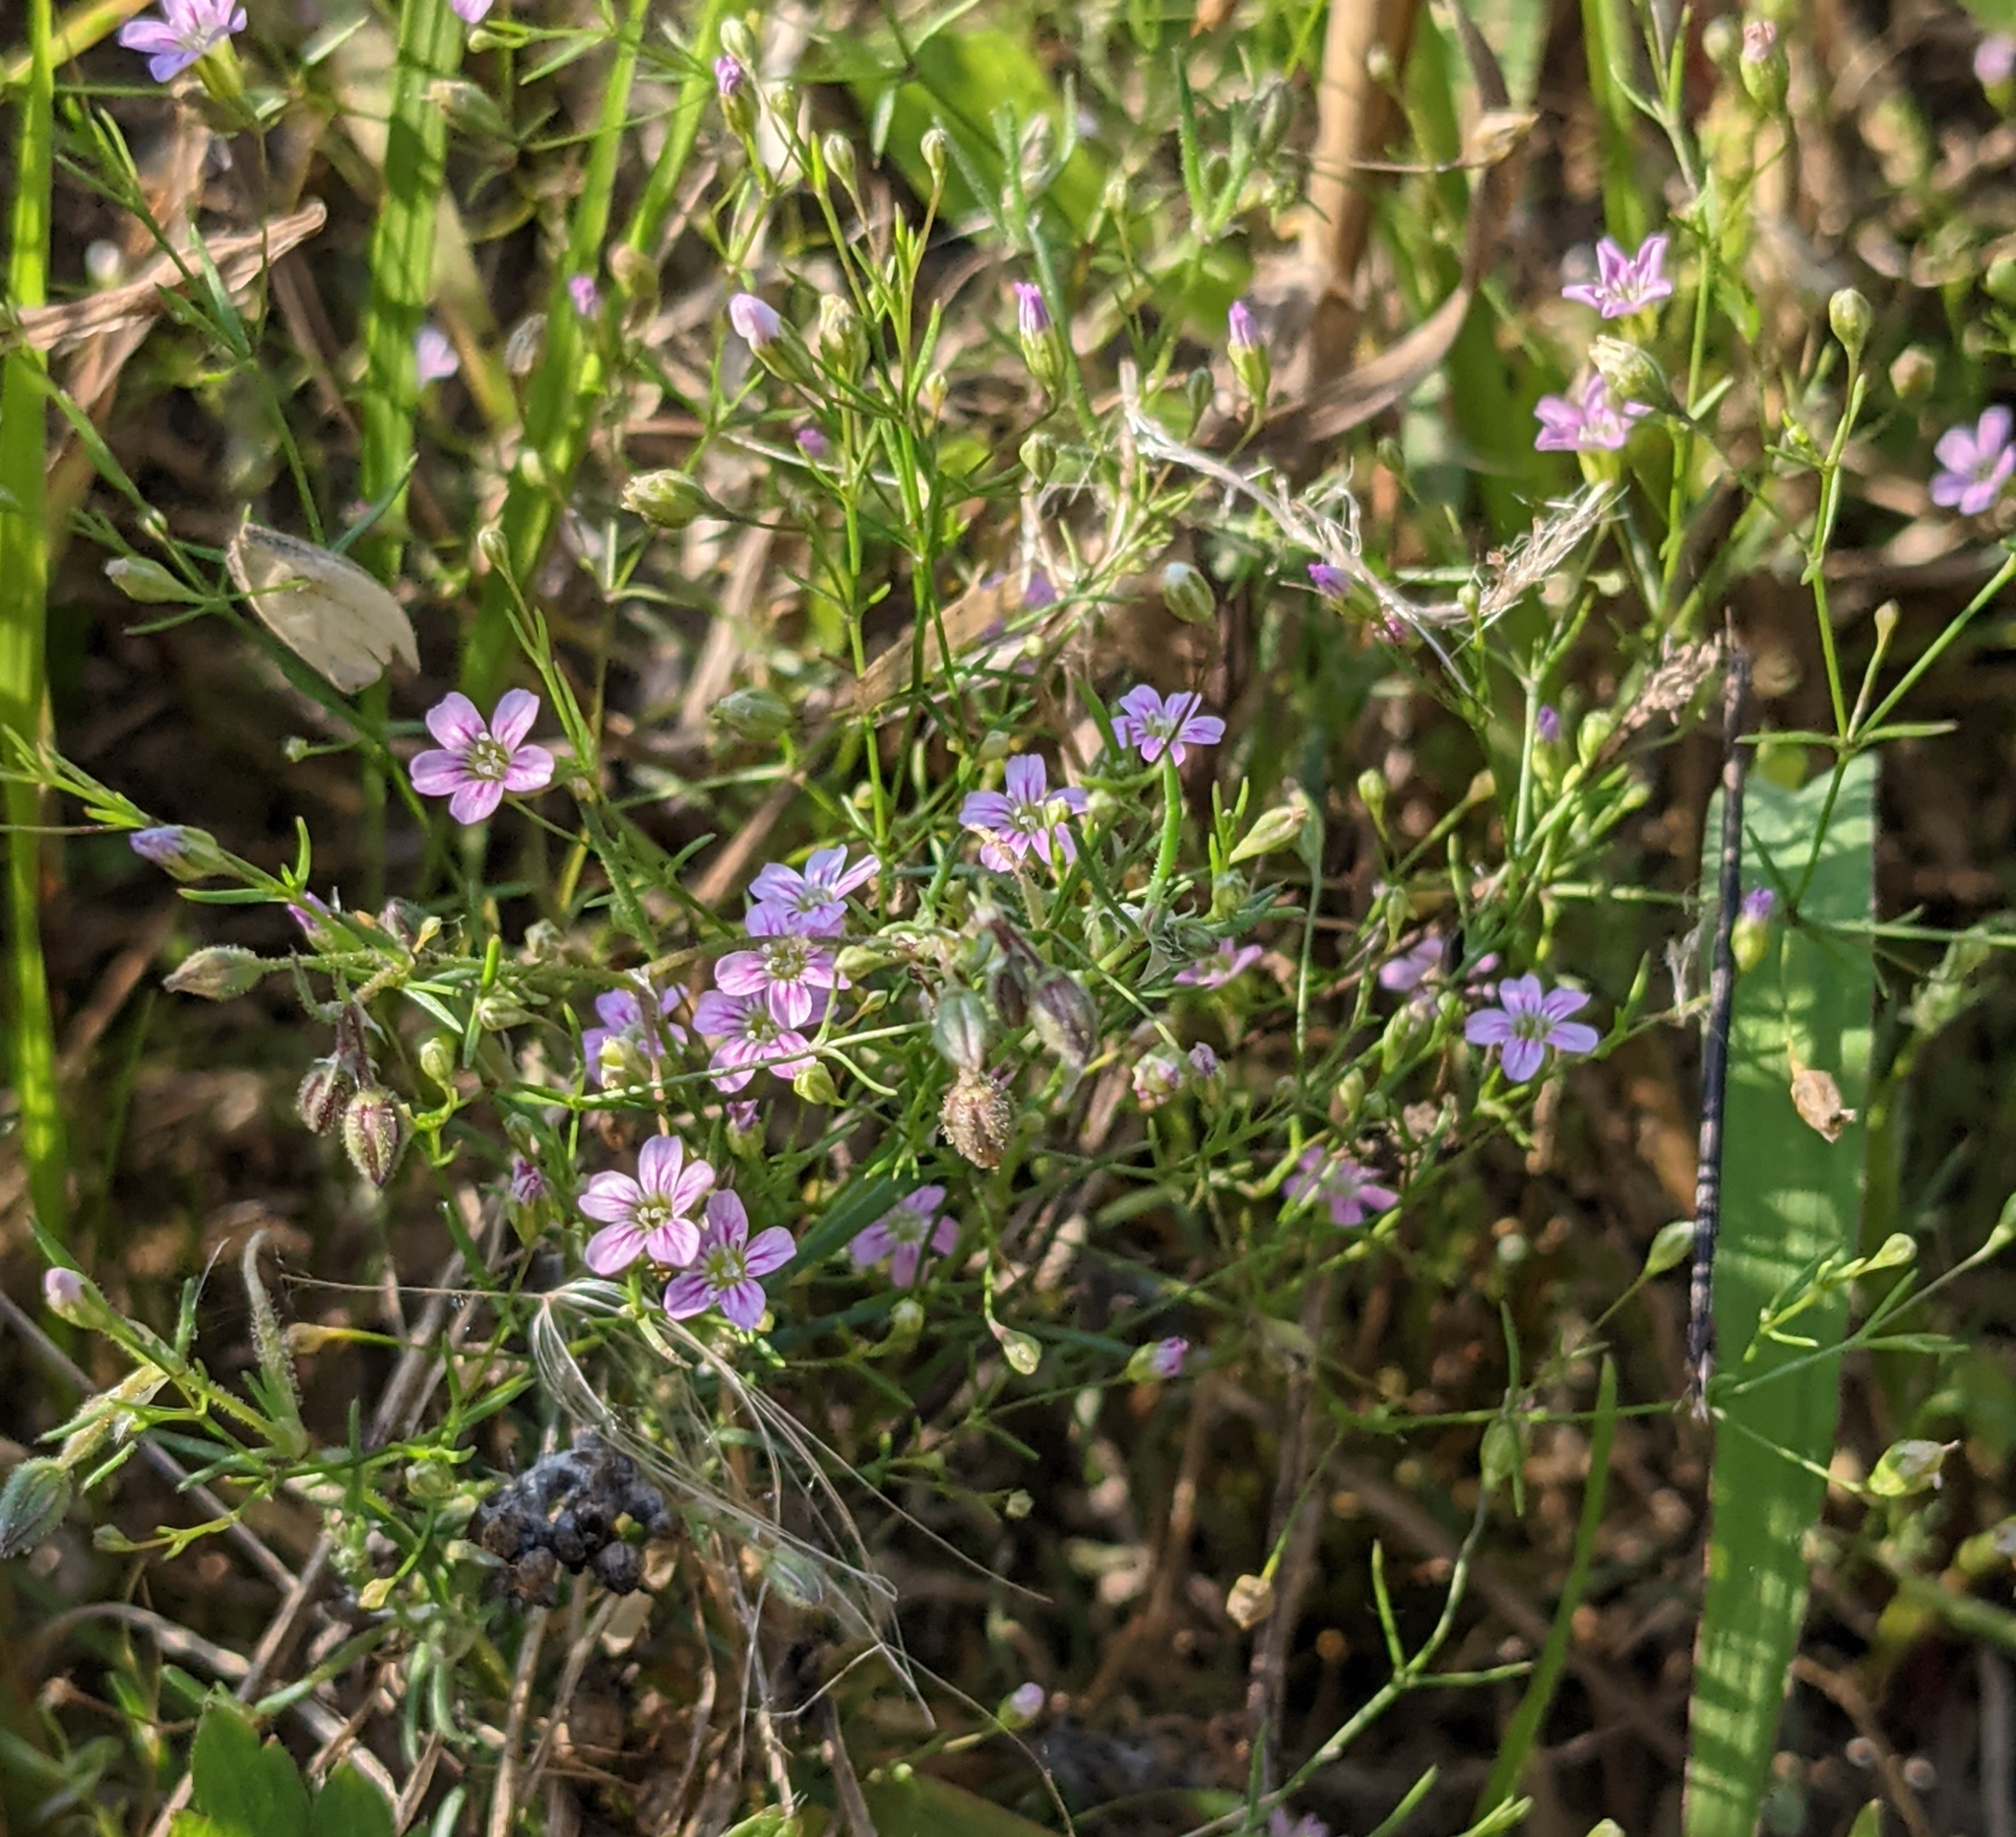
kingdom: Plantae
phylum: Tracheophyta
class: Magnoliopsida
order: Caryophyllales
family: Caryophyllaceae
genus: Psammophiliella
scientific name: Psammophiliella muralis
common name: Cushion baby's-breath
